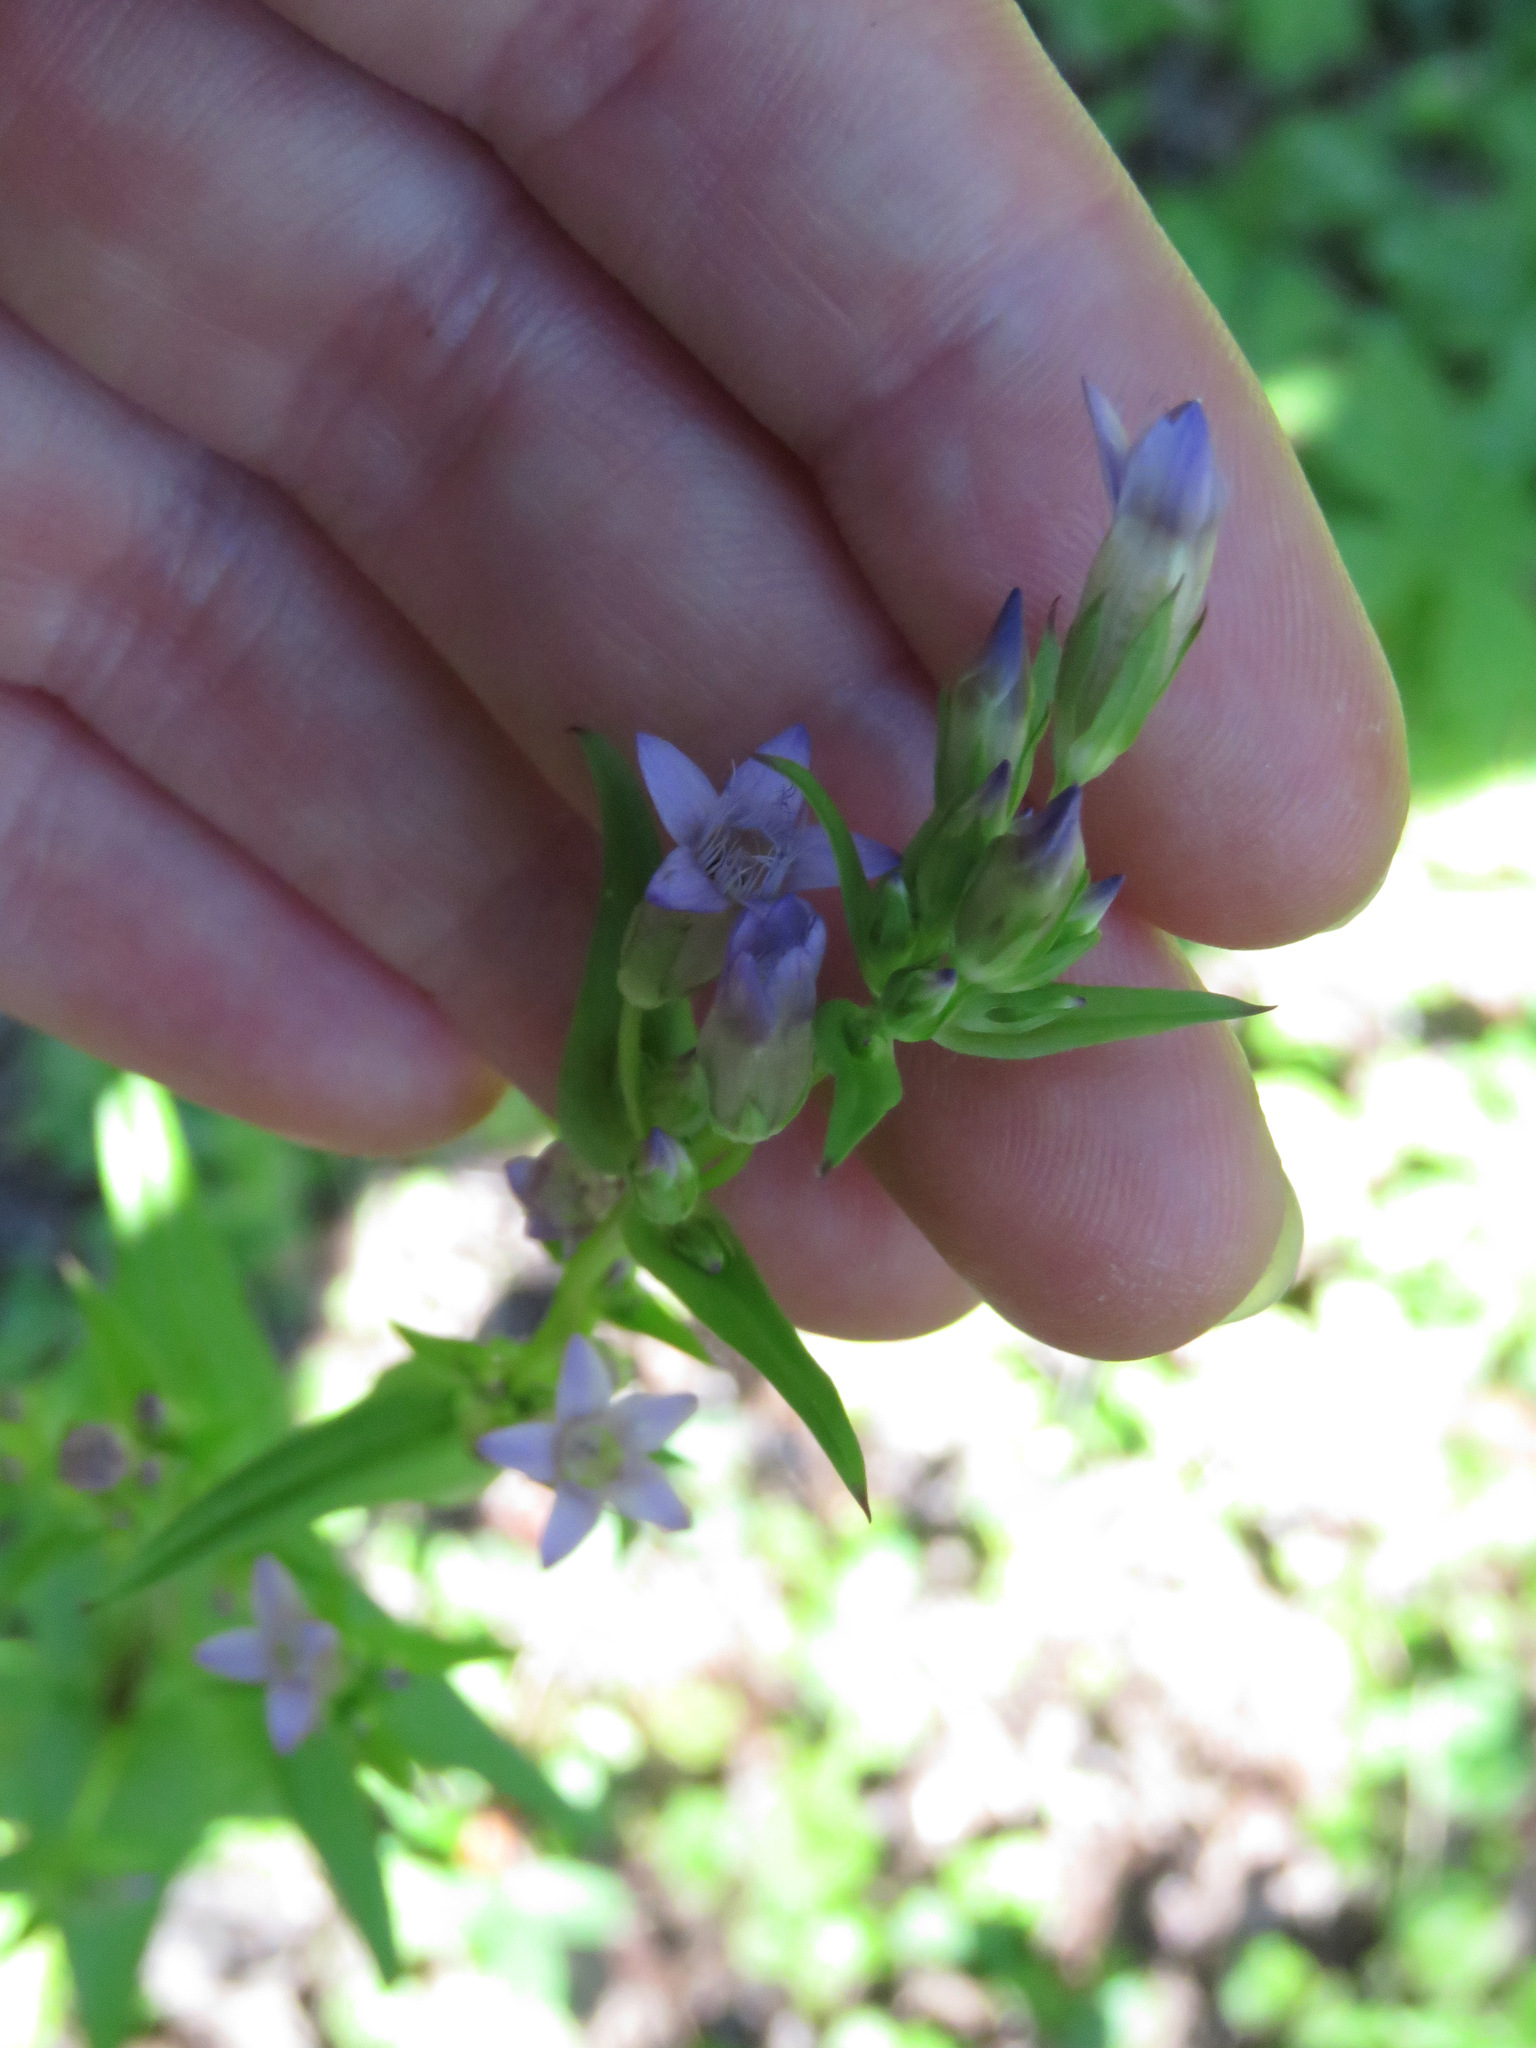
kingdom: Plantae
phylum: Tracheophyta
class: Magnoliopsida
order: Gentianales
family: Gentianaceae
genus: Gentianella
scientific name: Gentianella amarella
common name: Autumn gentian
